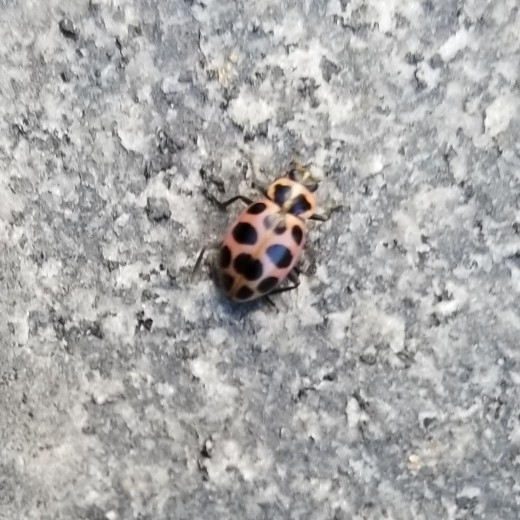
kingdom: Animalia
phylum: Arthropoda
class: Insecta
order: Coleoptera
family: Coccinellidae
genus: Coleomegilla
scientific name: Coleomegilla maculata
